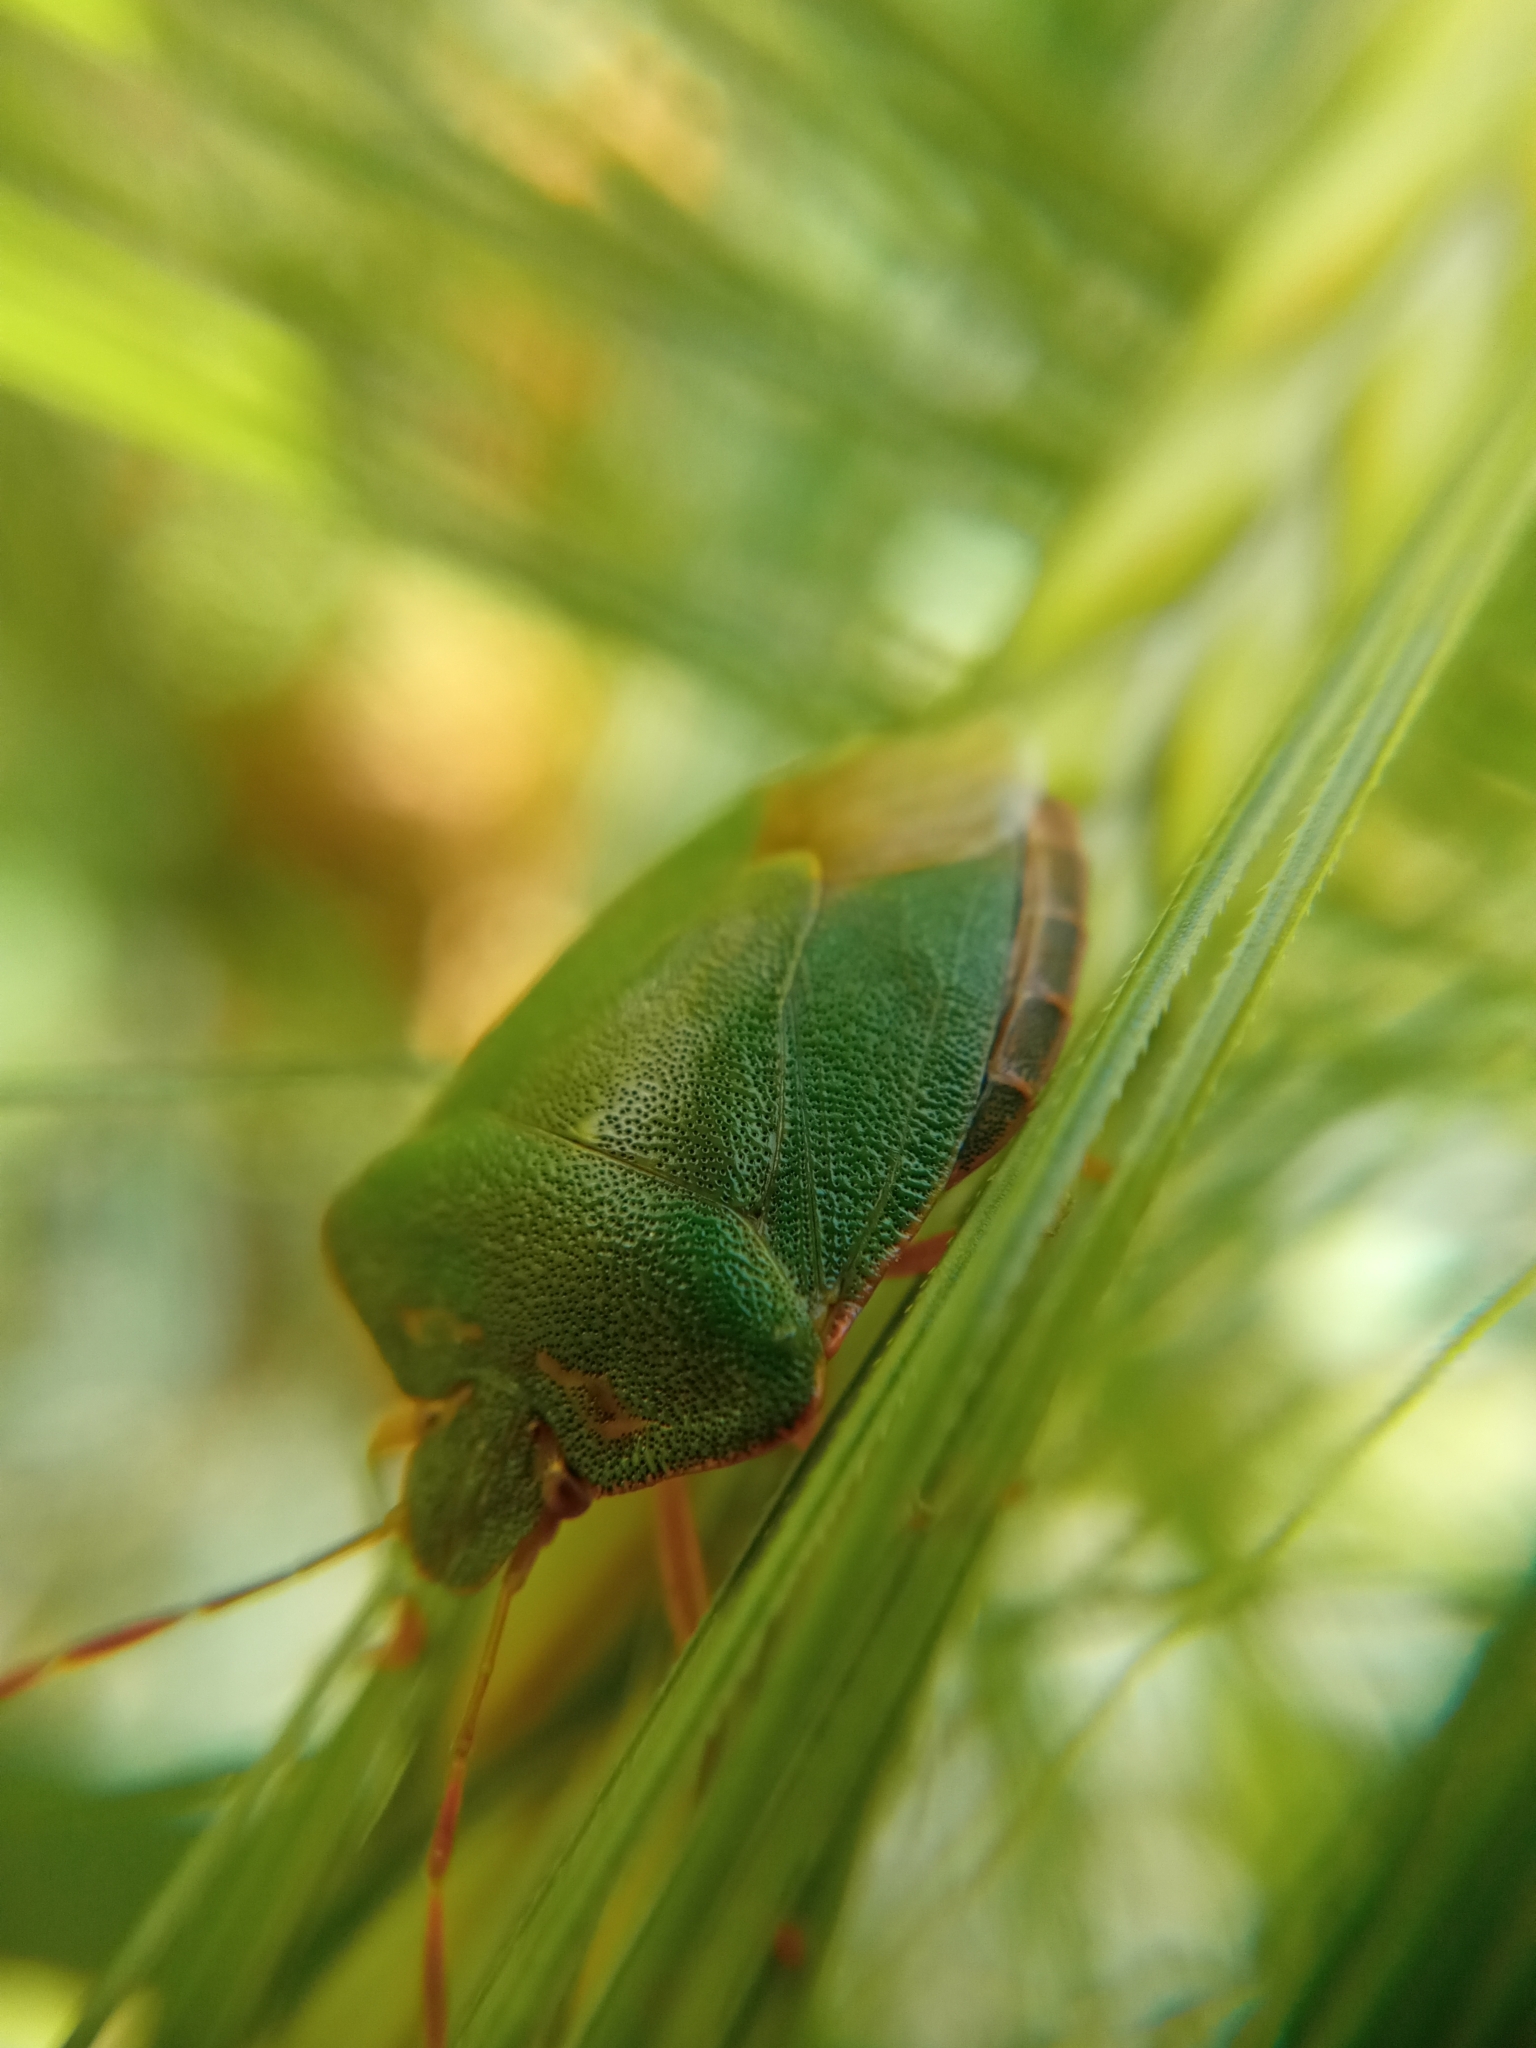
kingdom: Animalia
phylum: Arthropoda
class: Insecta
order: Hemiptera
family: Pentatomidae
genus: Palomena
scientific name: Palomena prasina
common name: Green shieldbug
